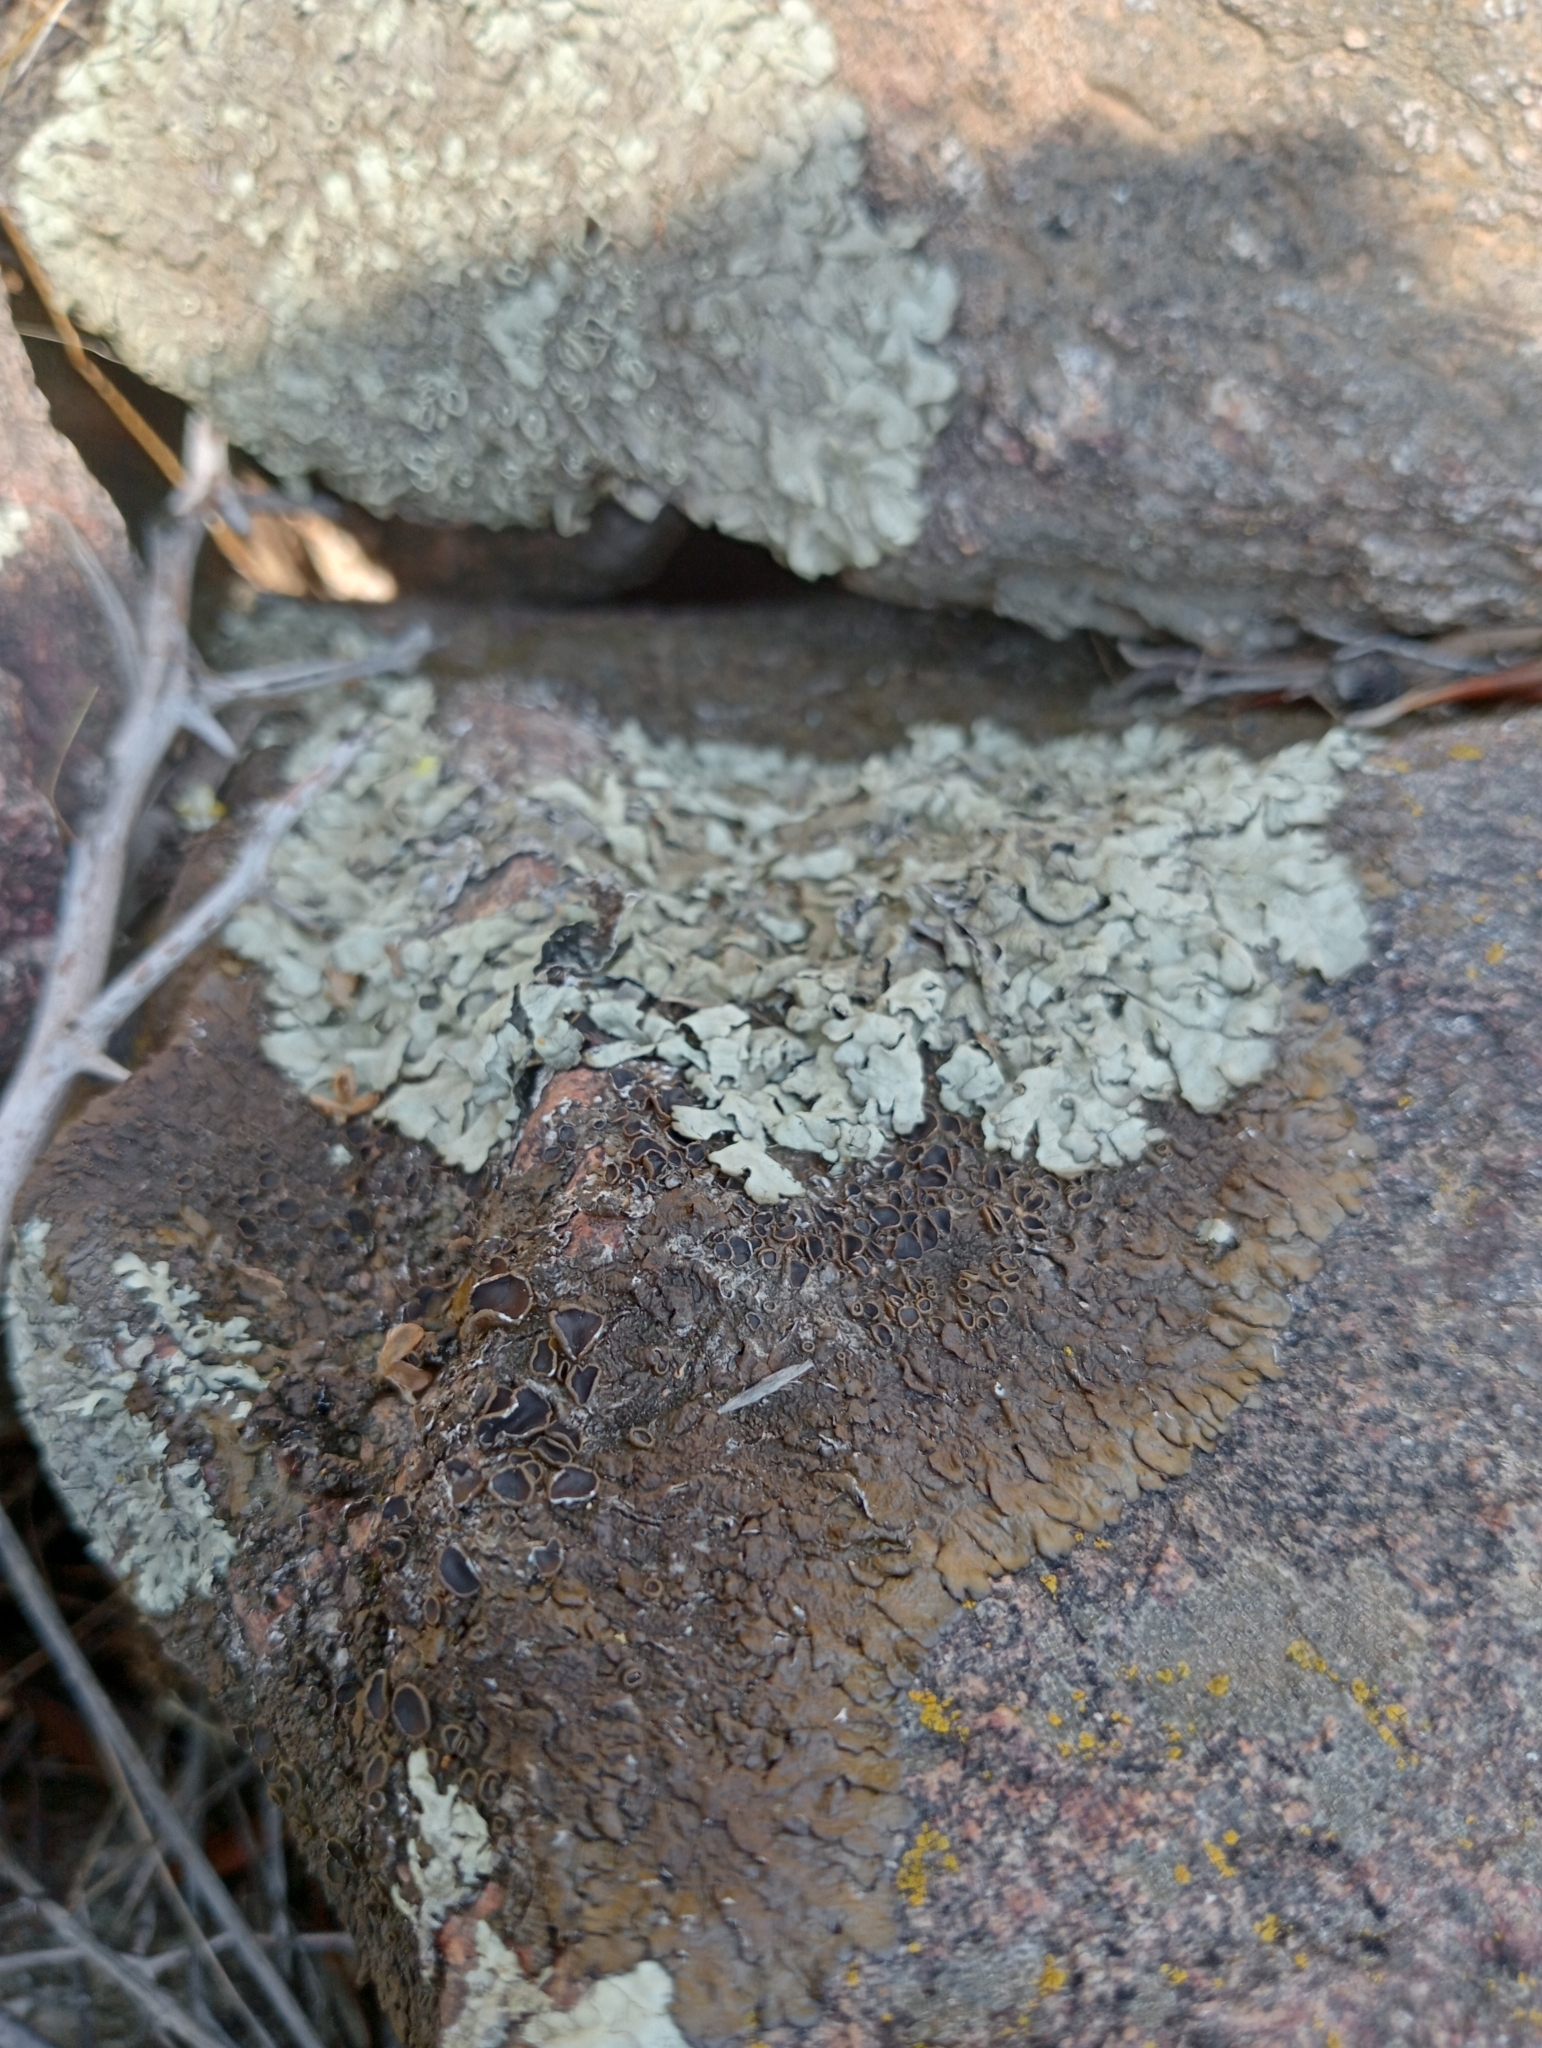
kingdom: Fungi
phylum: Ascomycota
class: Lecanoromycetes
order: Lecanorales
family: Parmeliaceae
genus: Xanthoparmelia
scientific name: Xanthoparmelia pulla
